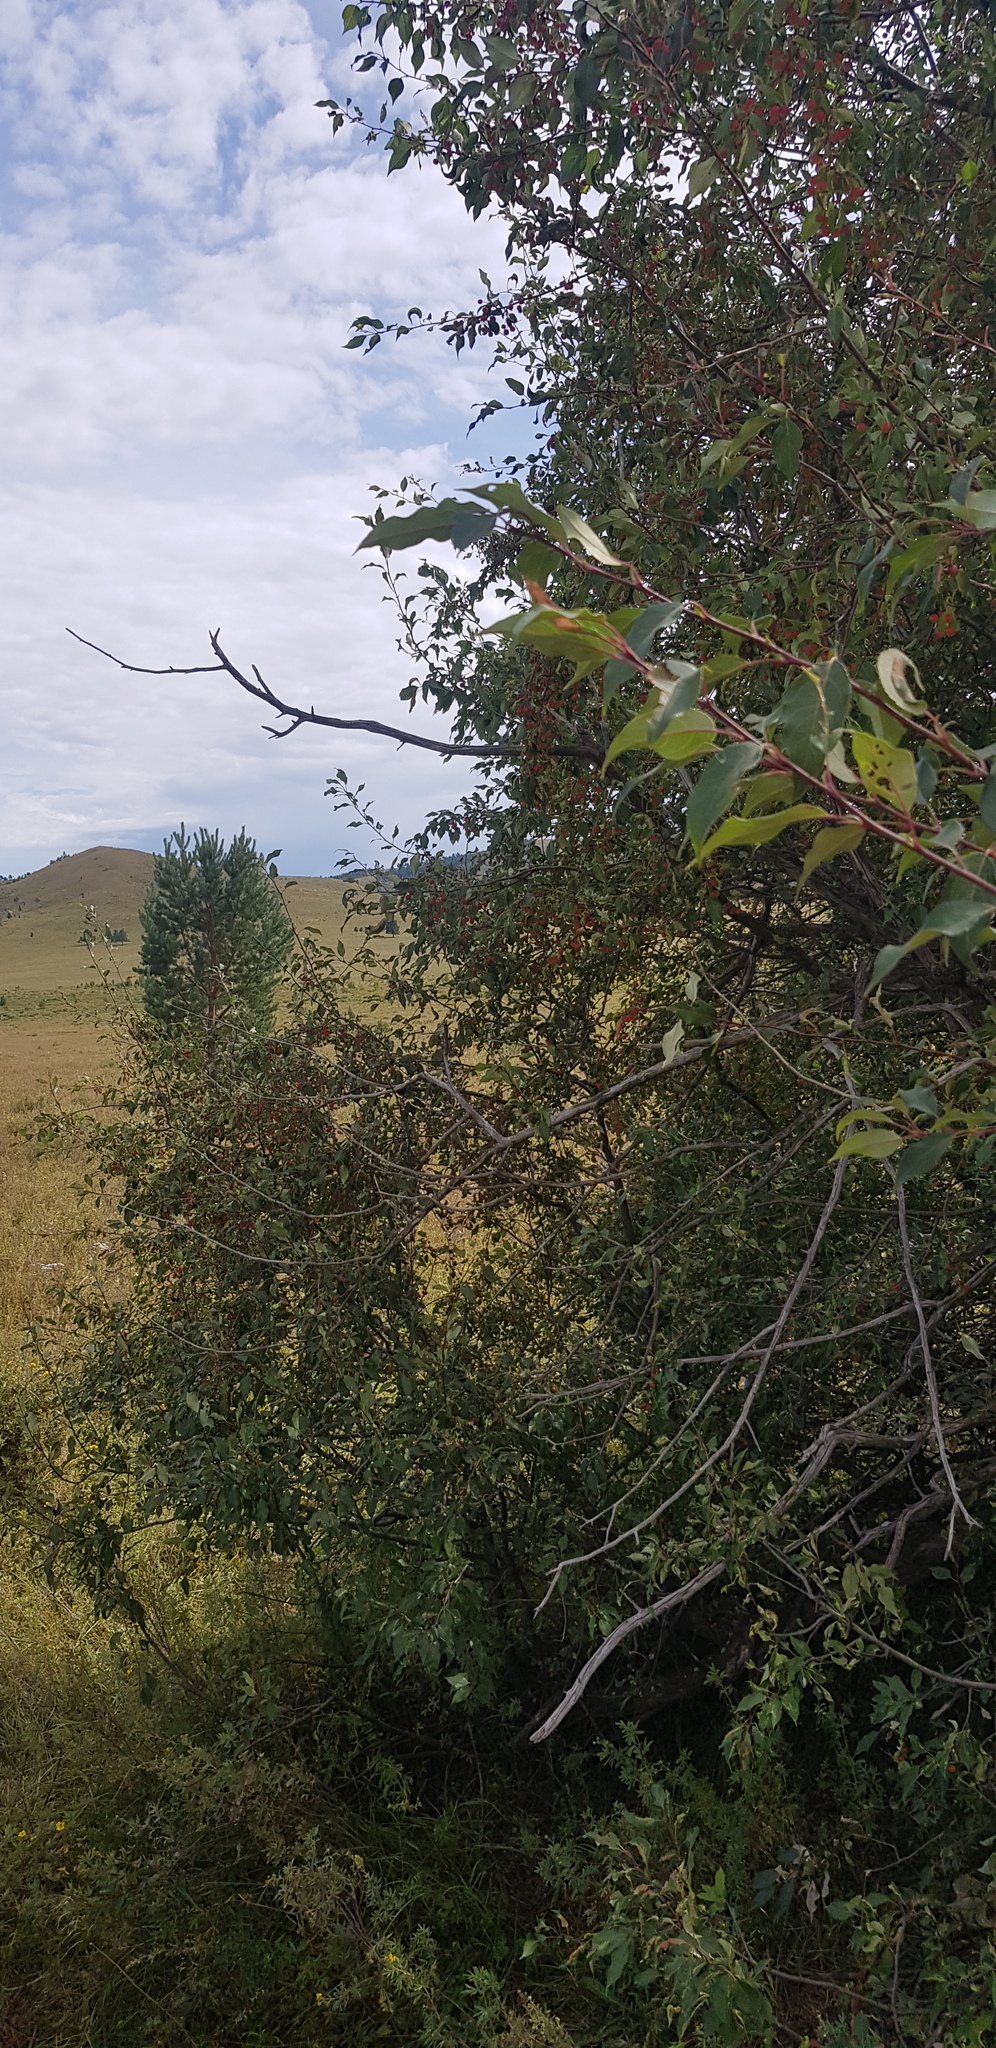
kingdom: Plantae
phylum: Tracheophyta
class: Magnoliopsida
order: Rosales
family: Rosaceae
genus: Malus
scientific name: Malus baccata
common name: Siberian crab
